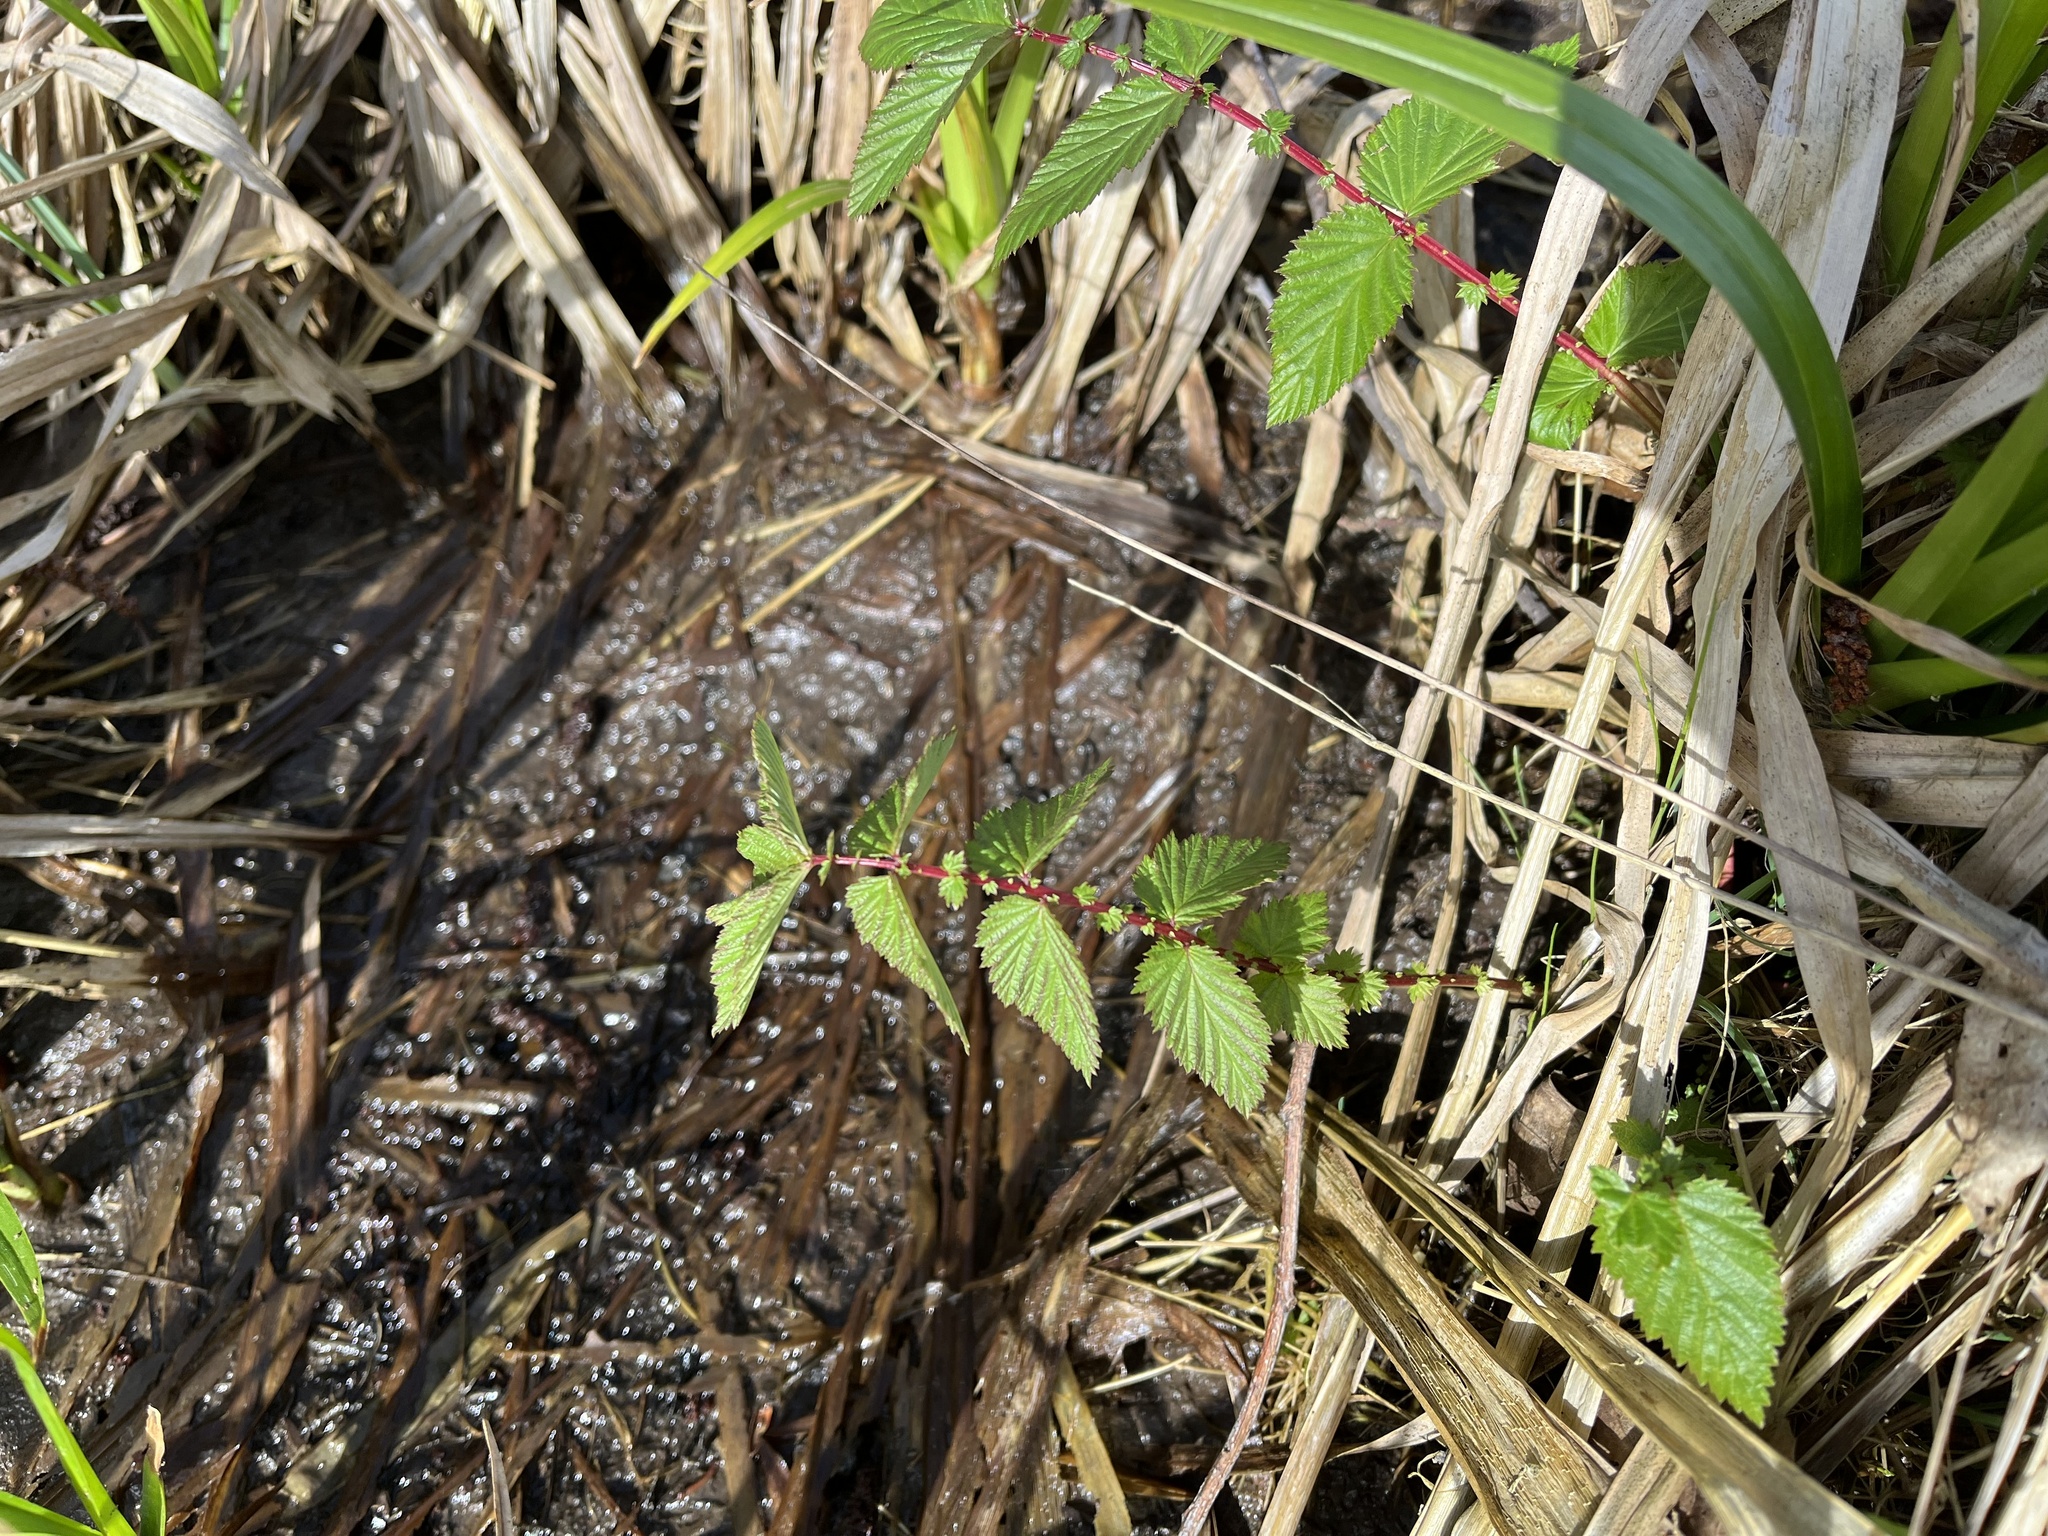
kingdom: Plantae
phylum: Tracheophyta
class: Magnoliopsida
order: Rosales
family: Rosaceae
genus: Filipendula
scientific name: Filipendula ulmaria
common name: Meadowsweet
